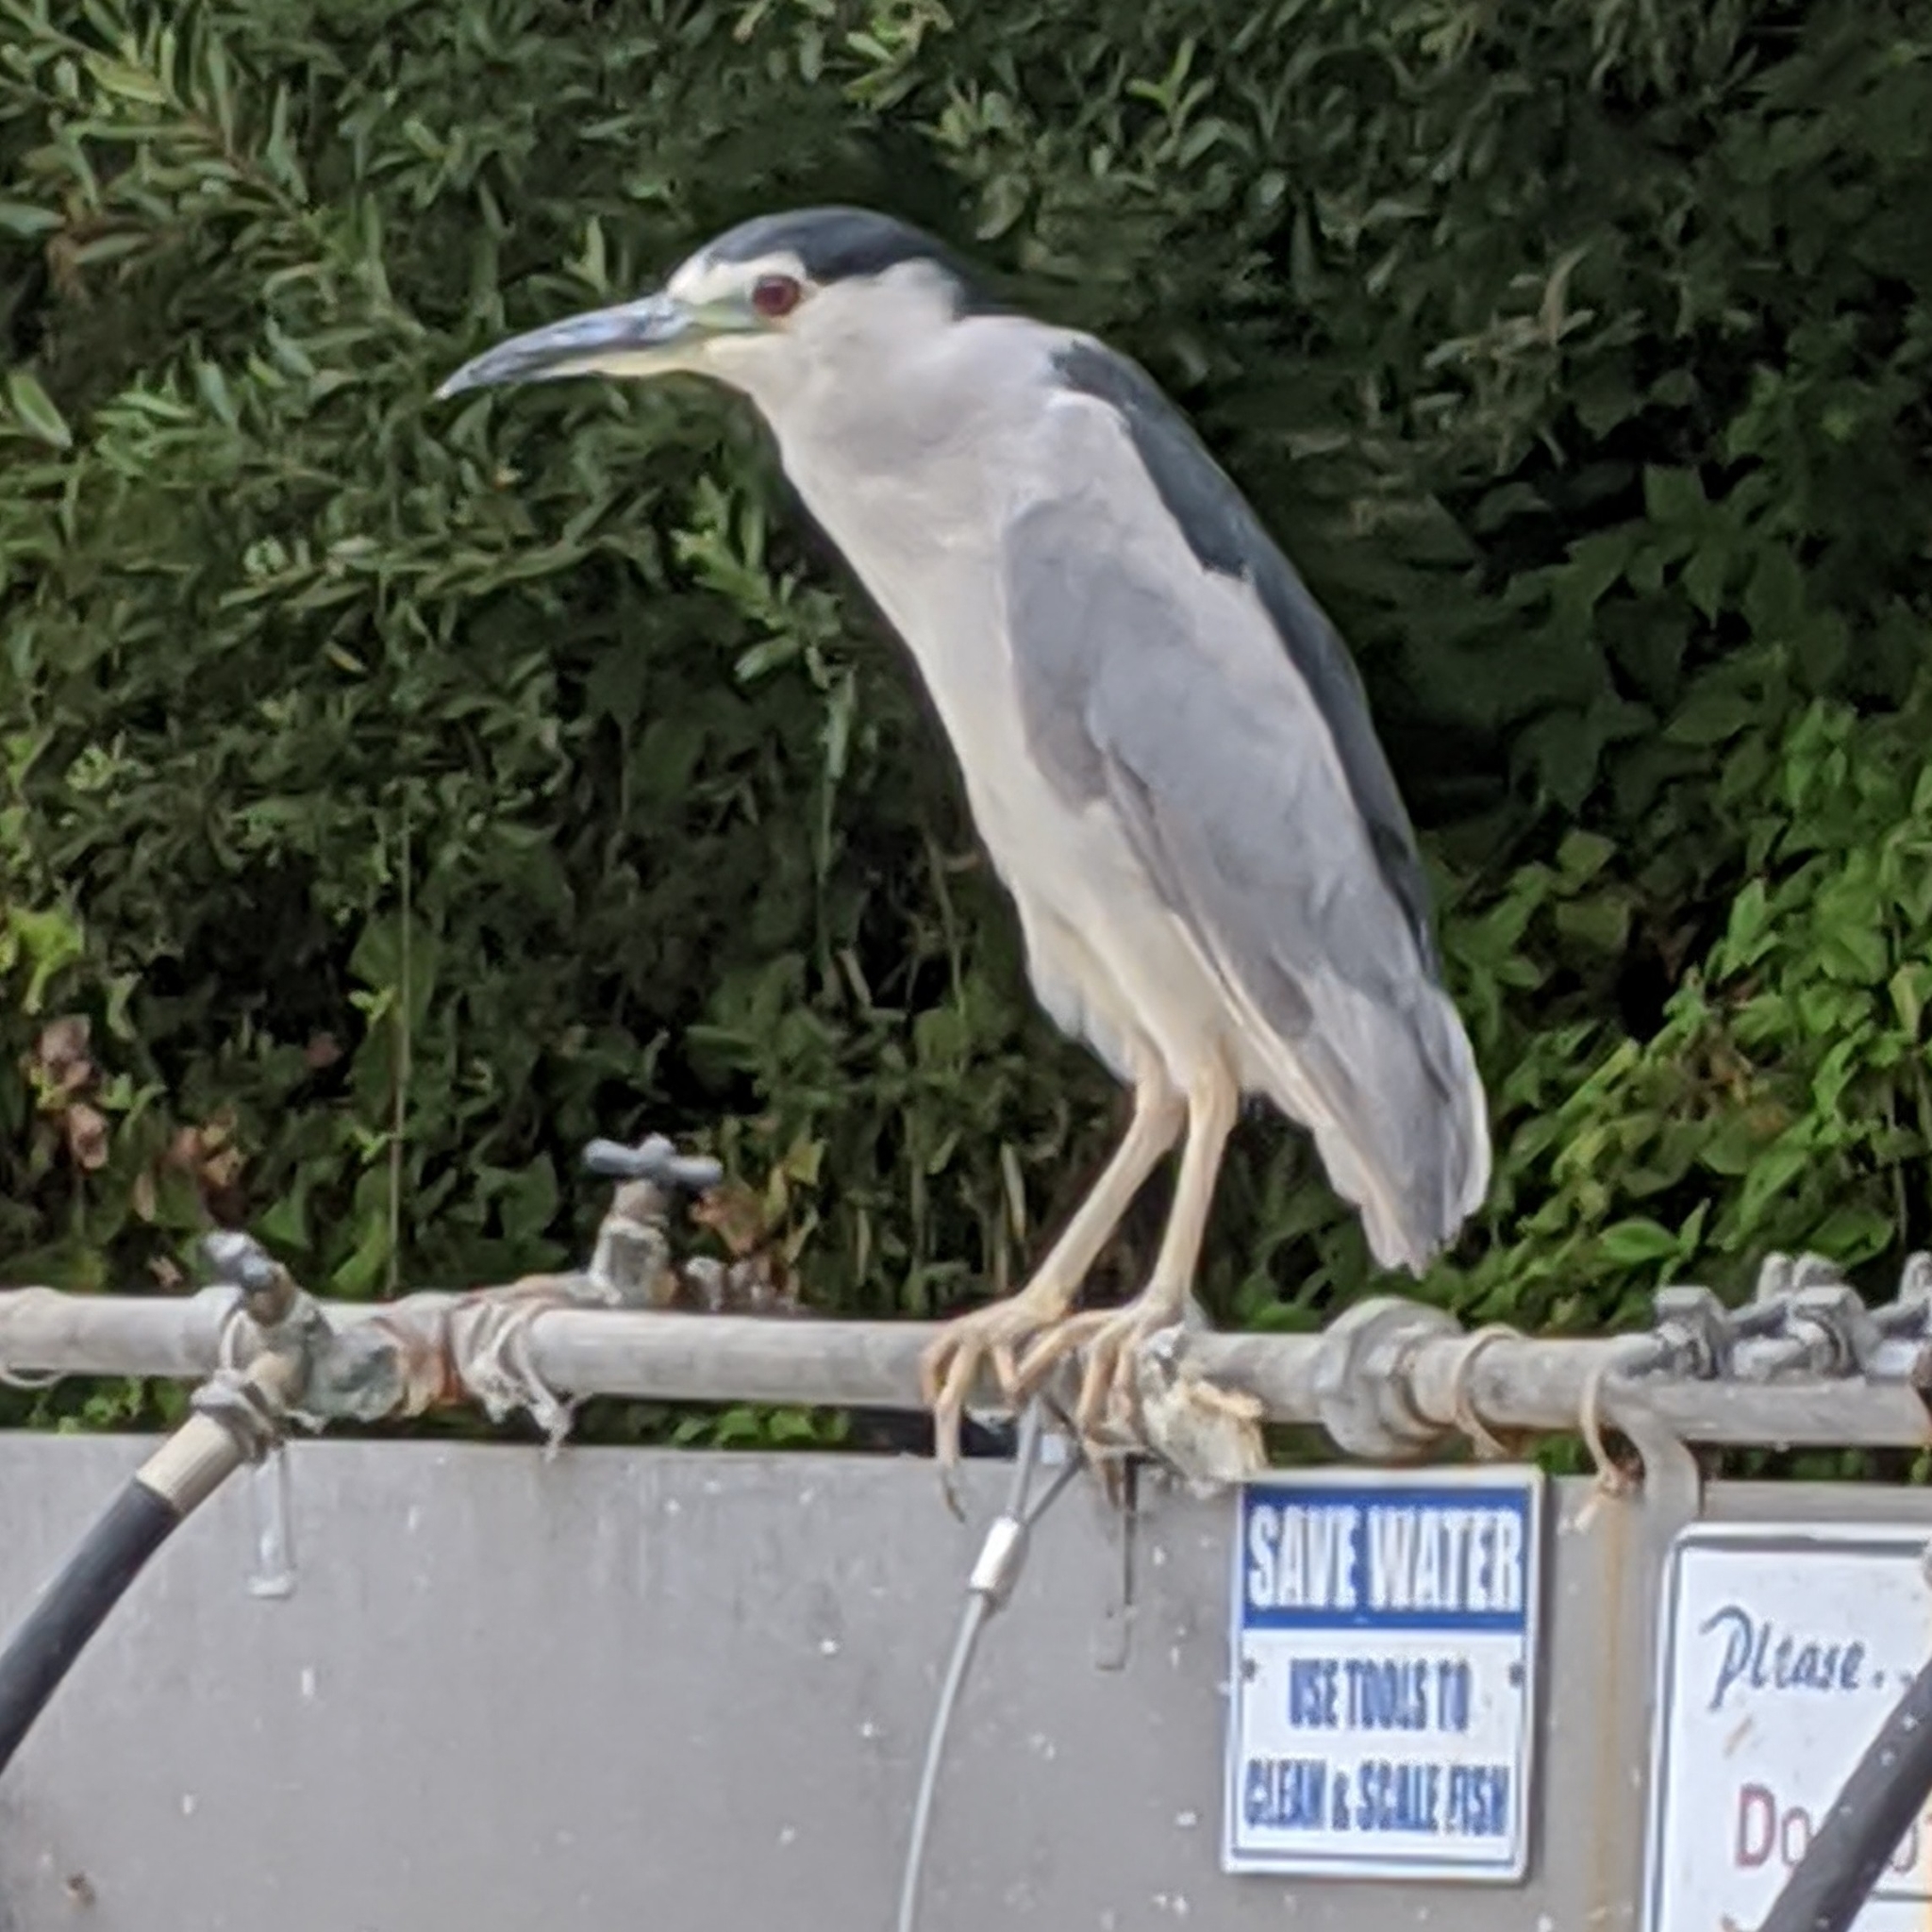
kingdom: Animalia
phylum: Chordata
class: Aves
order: Pelecaniformes
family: Ardeidae
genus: Nycticorax
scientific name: Nycticorax nycticorax
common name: Black-crowned night heron
